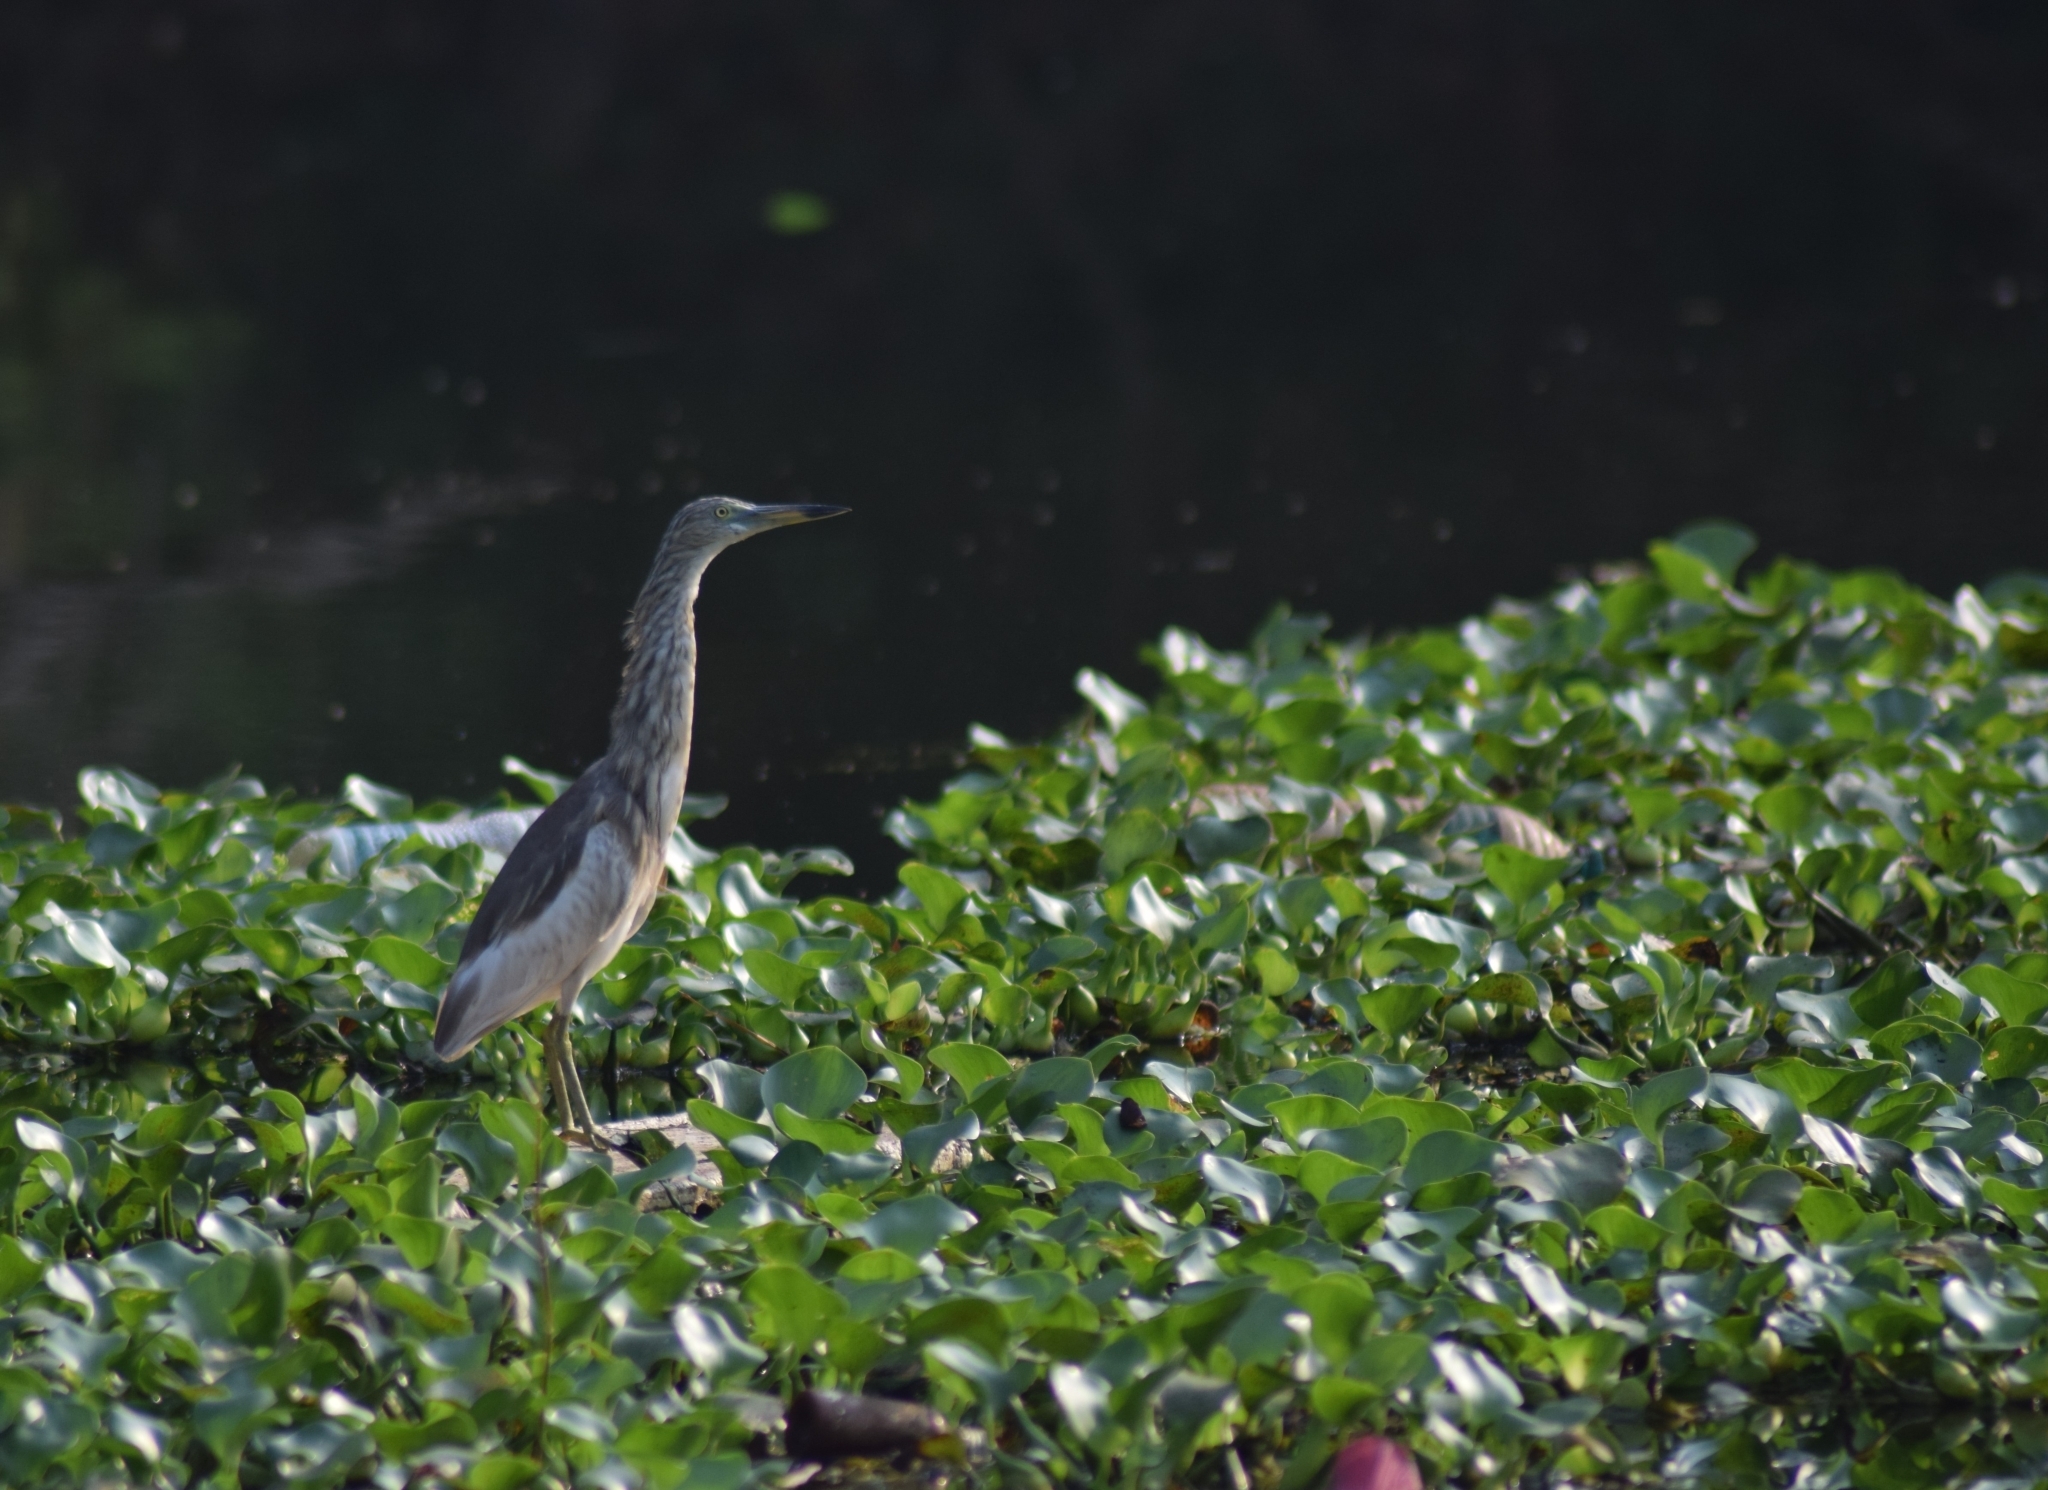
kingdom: Animalia
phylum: Chordata
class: Aves
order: Pelecaniformes
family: Ardeidae
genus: Ardeola
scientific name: Ardeola grayii
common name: Indian pond heron
